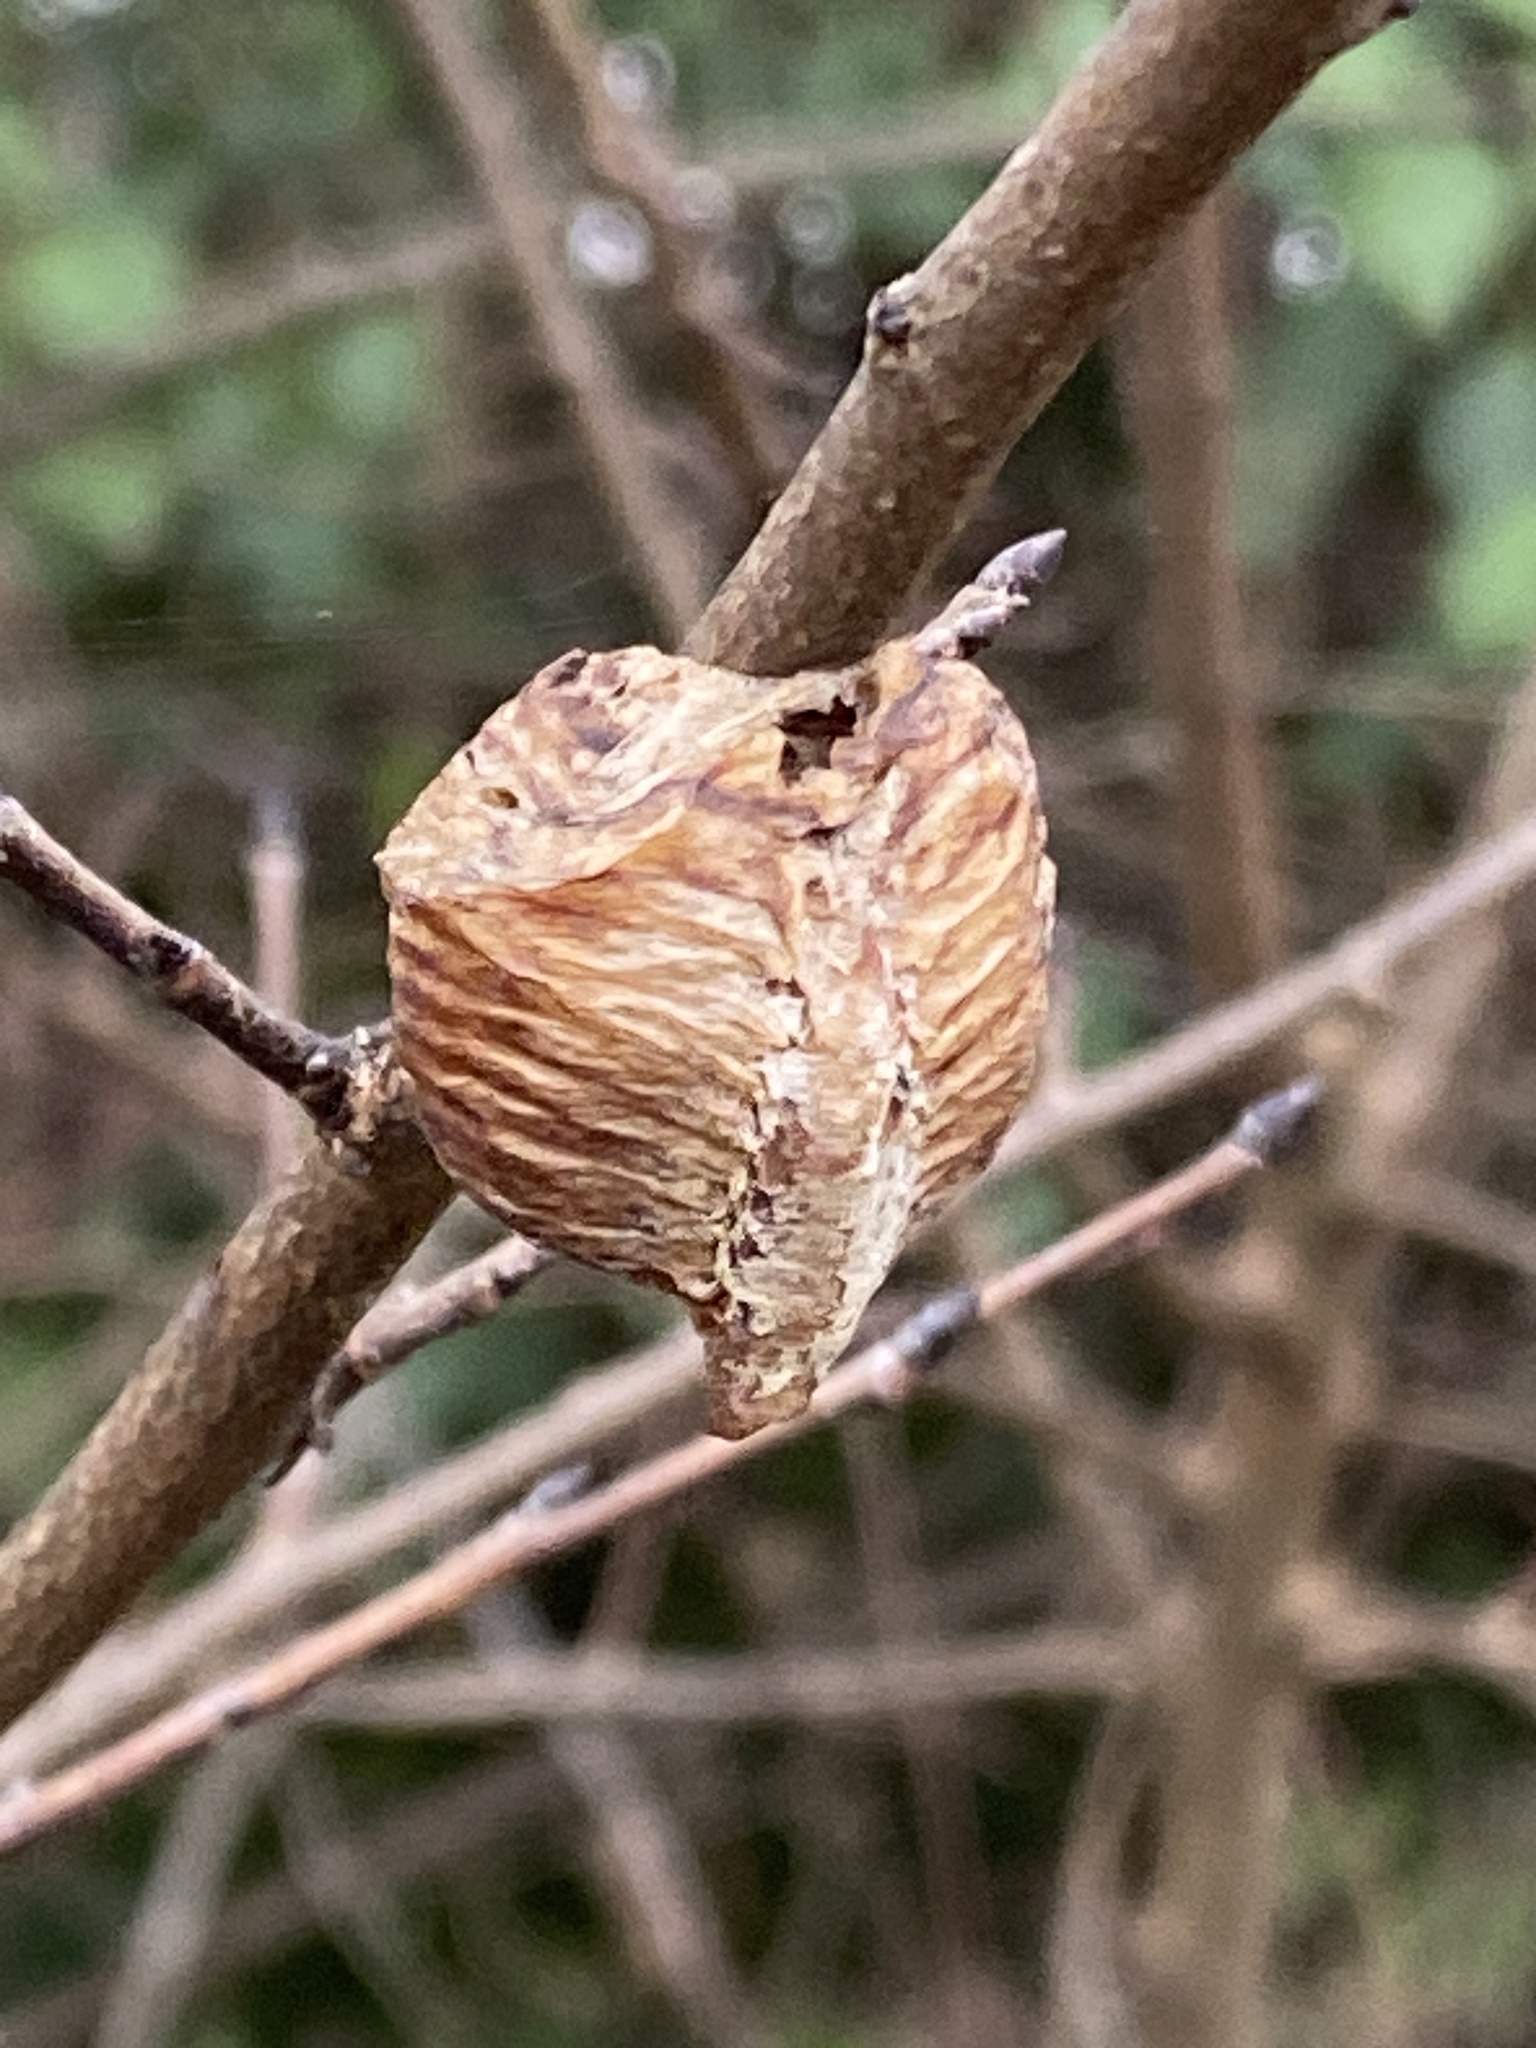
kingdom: Animalia
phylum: Arthropoda
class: Insecta
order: Mantodea
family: Mantidae
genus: Hierodula
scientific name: Hierodula transcaucasica
